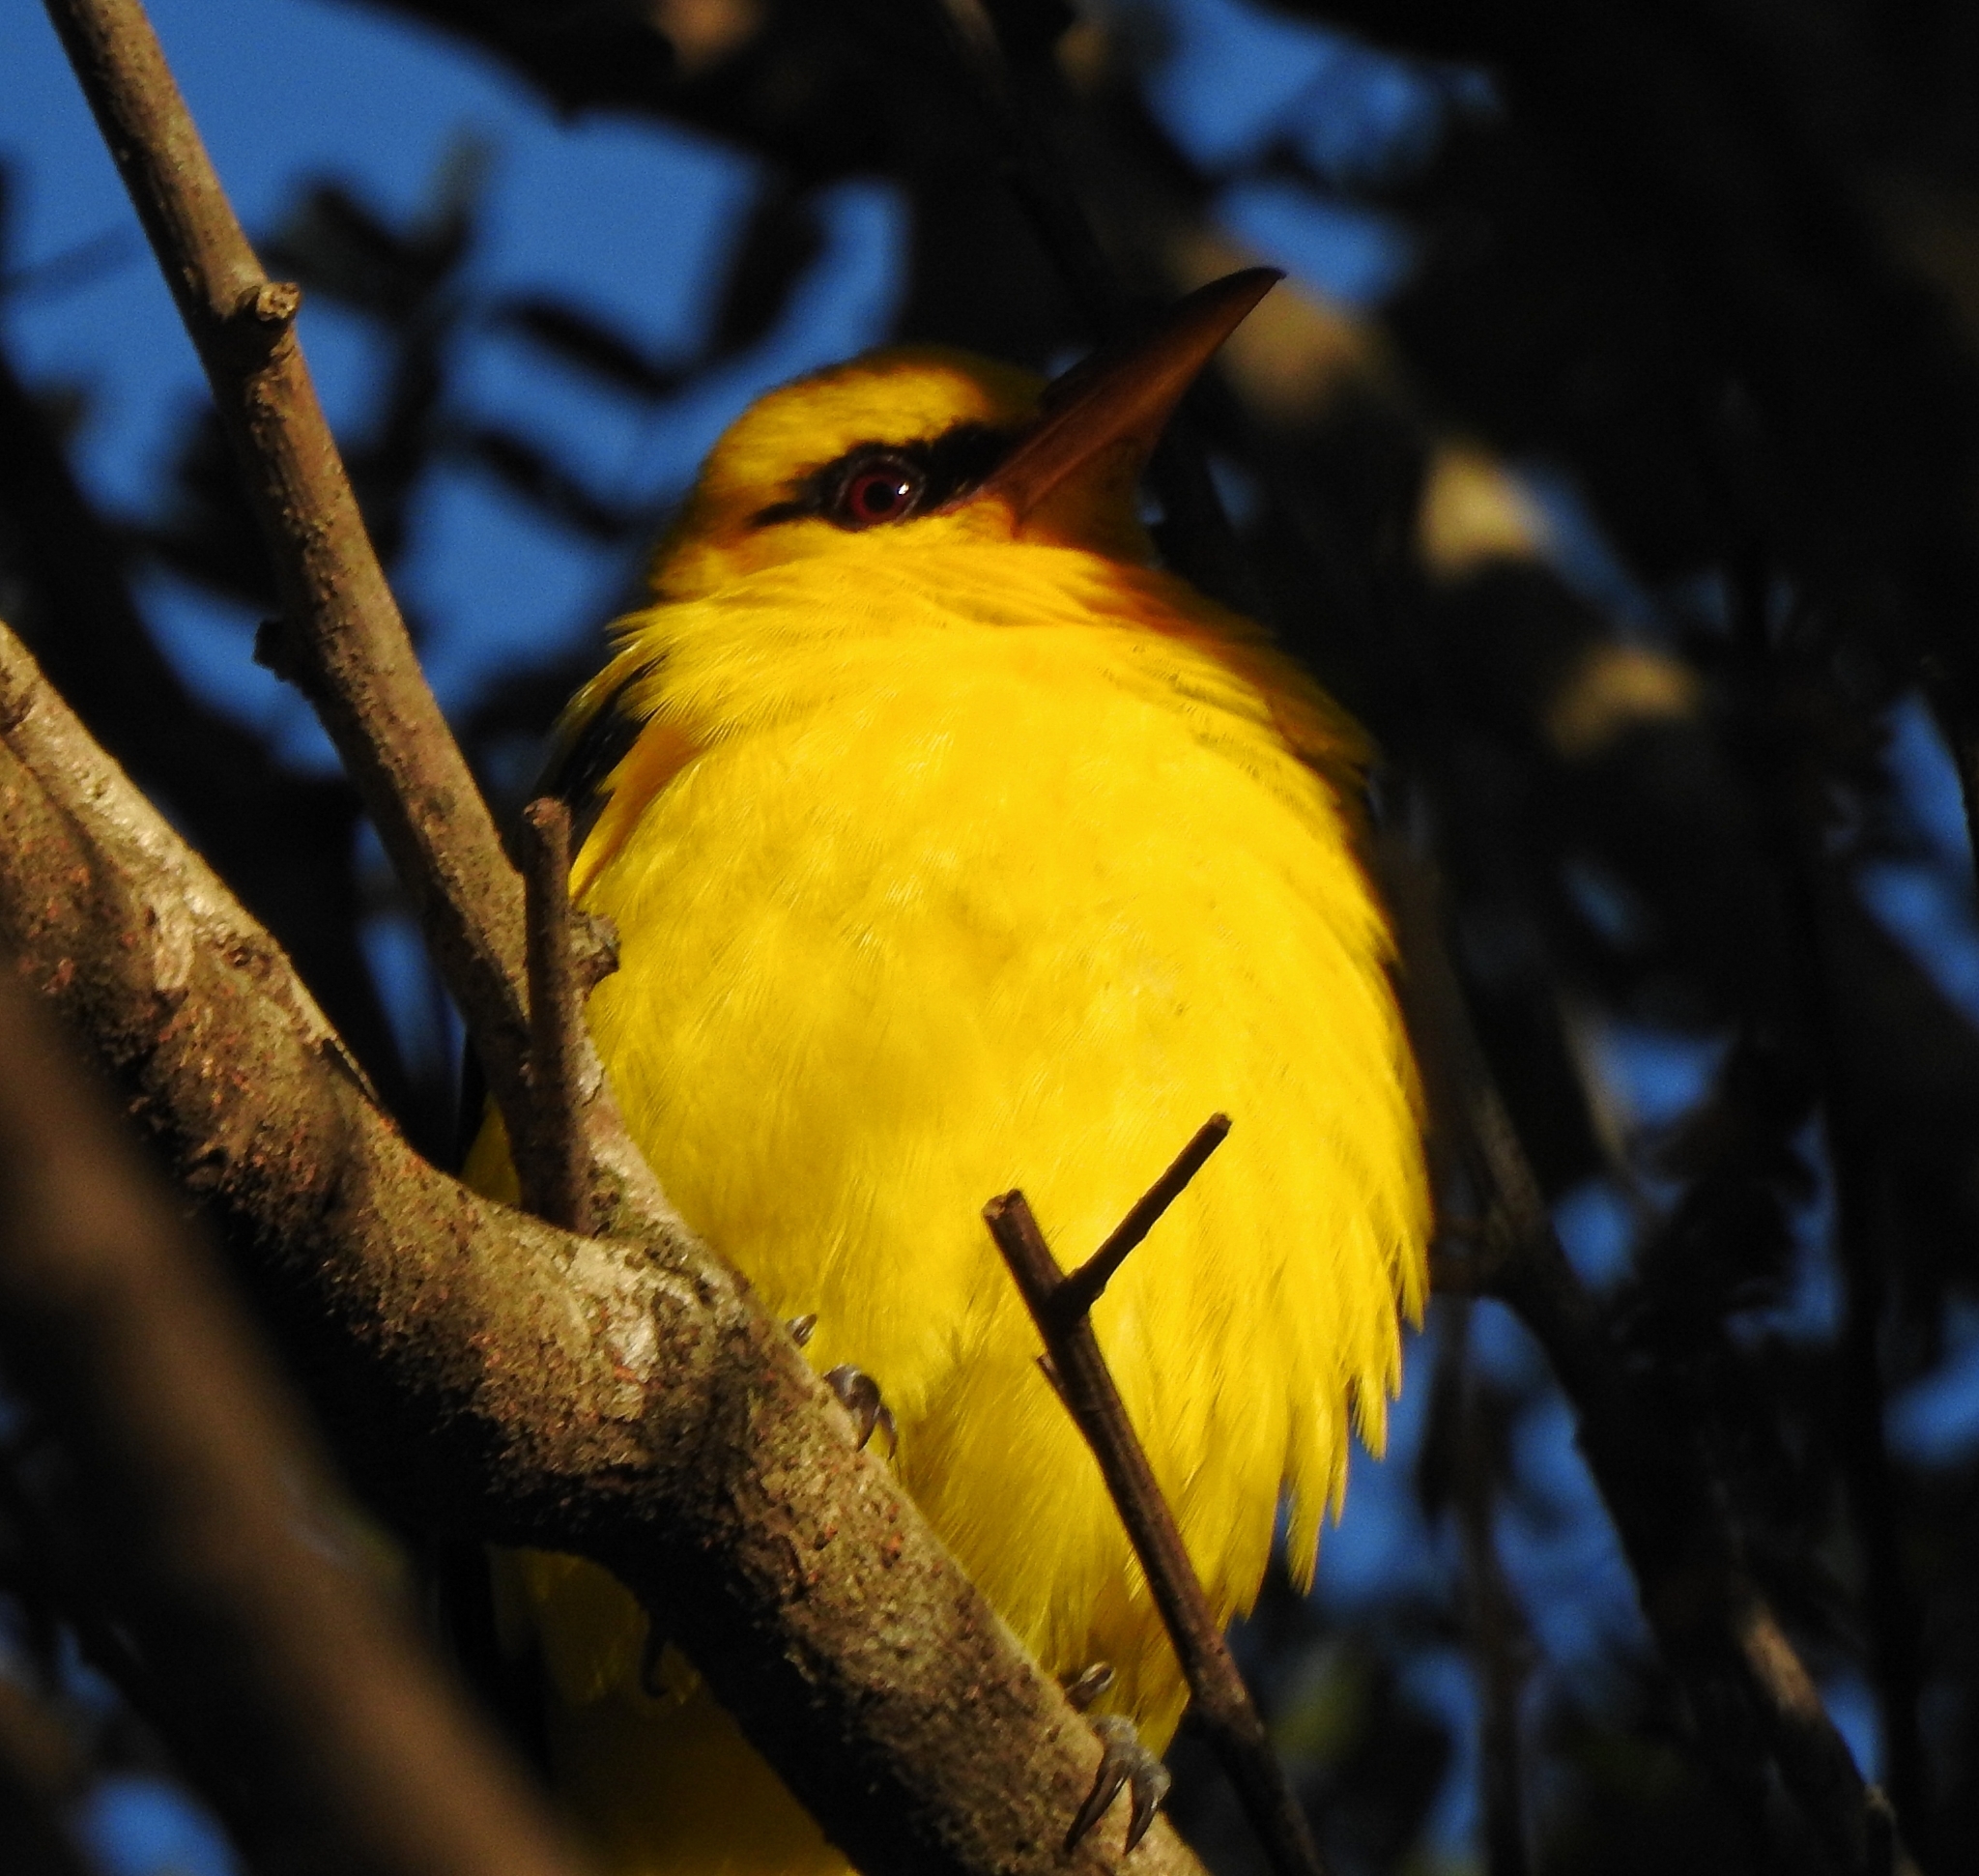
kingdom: Animalia
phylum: Chordata
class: Aves
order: Passeriformes
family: Oriolidae
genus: Oriolus
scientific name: Oriolus kundoo
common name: Indian golden oriole
